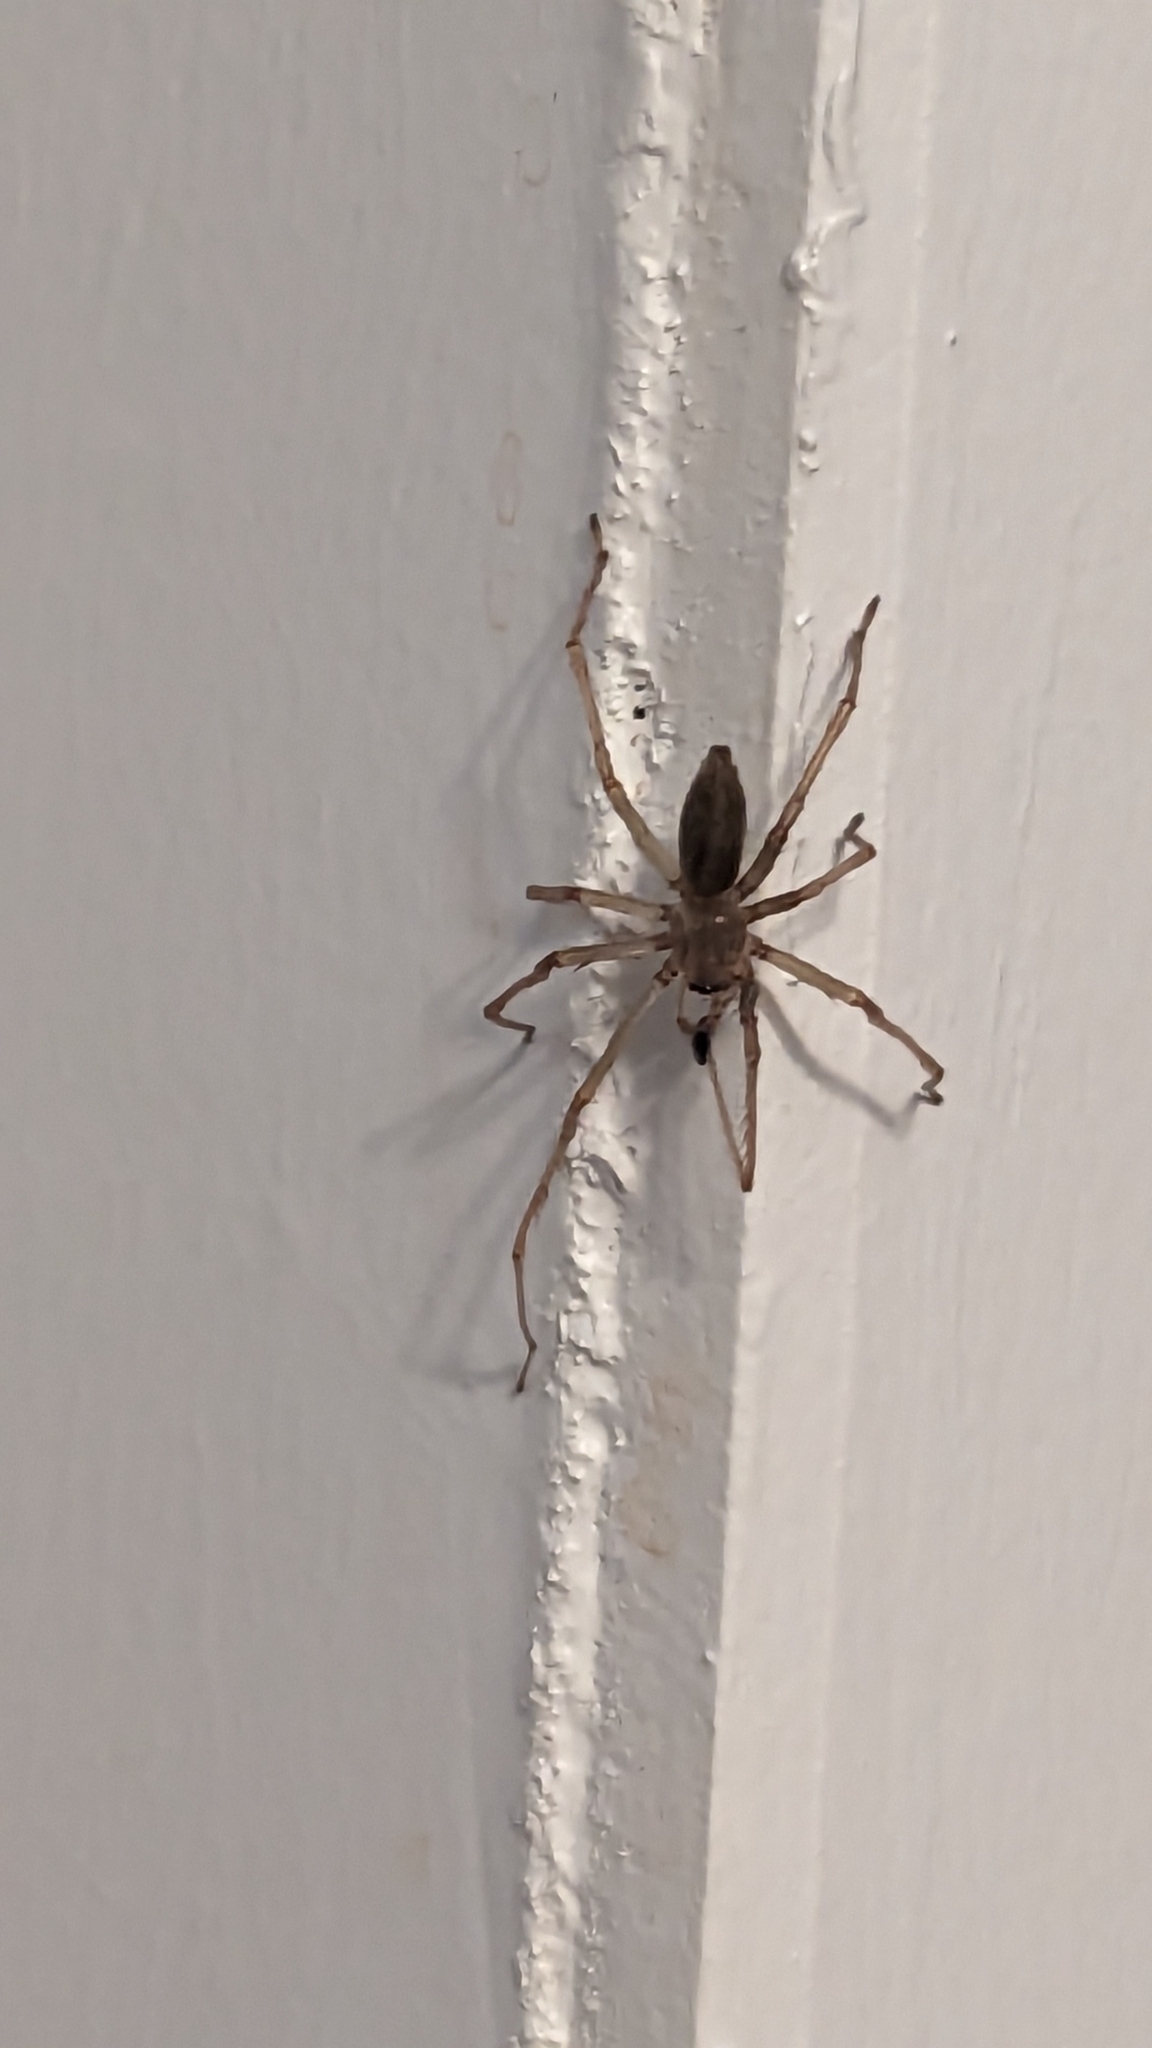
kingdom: Animalia
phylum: Arthropoda
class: Arachnida
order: Araneae
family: Cheiracanthiidae
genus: Cheiracanthium
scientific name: Cheiracanthium mildei
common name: Northern yellow sac spider
